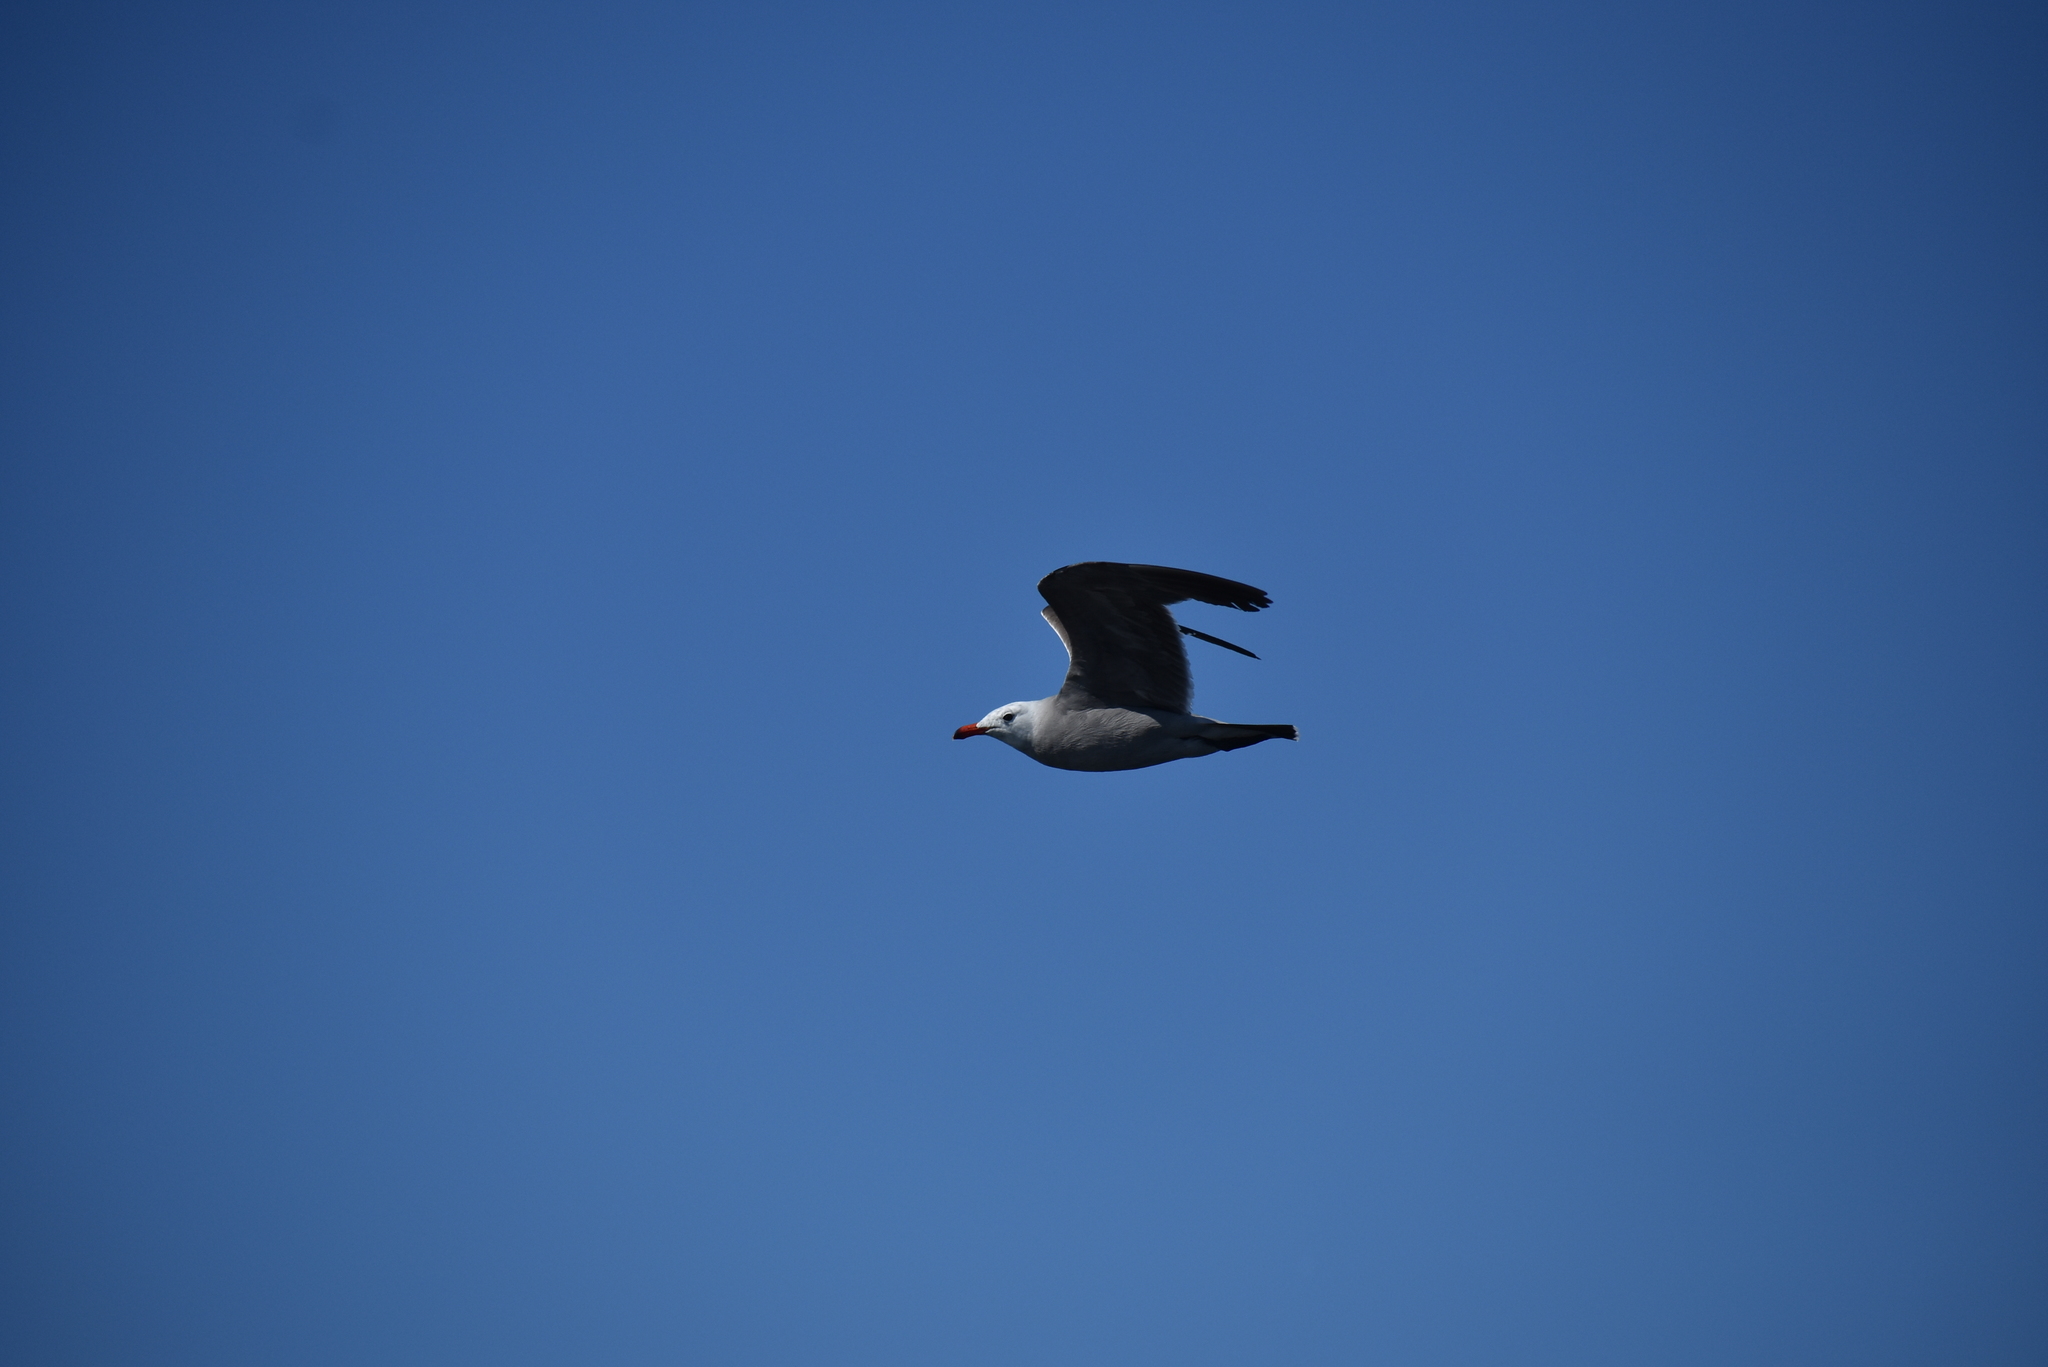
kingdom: Animalia
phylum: Chordata
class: Aves
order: Charadriiformes
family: Laridae
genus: Larus
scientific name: Larus heermanni
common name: Heermann's gull
